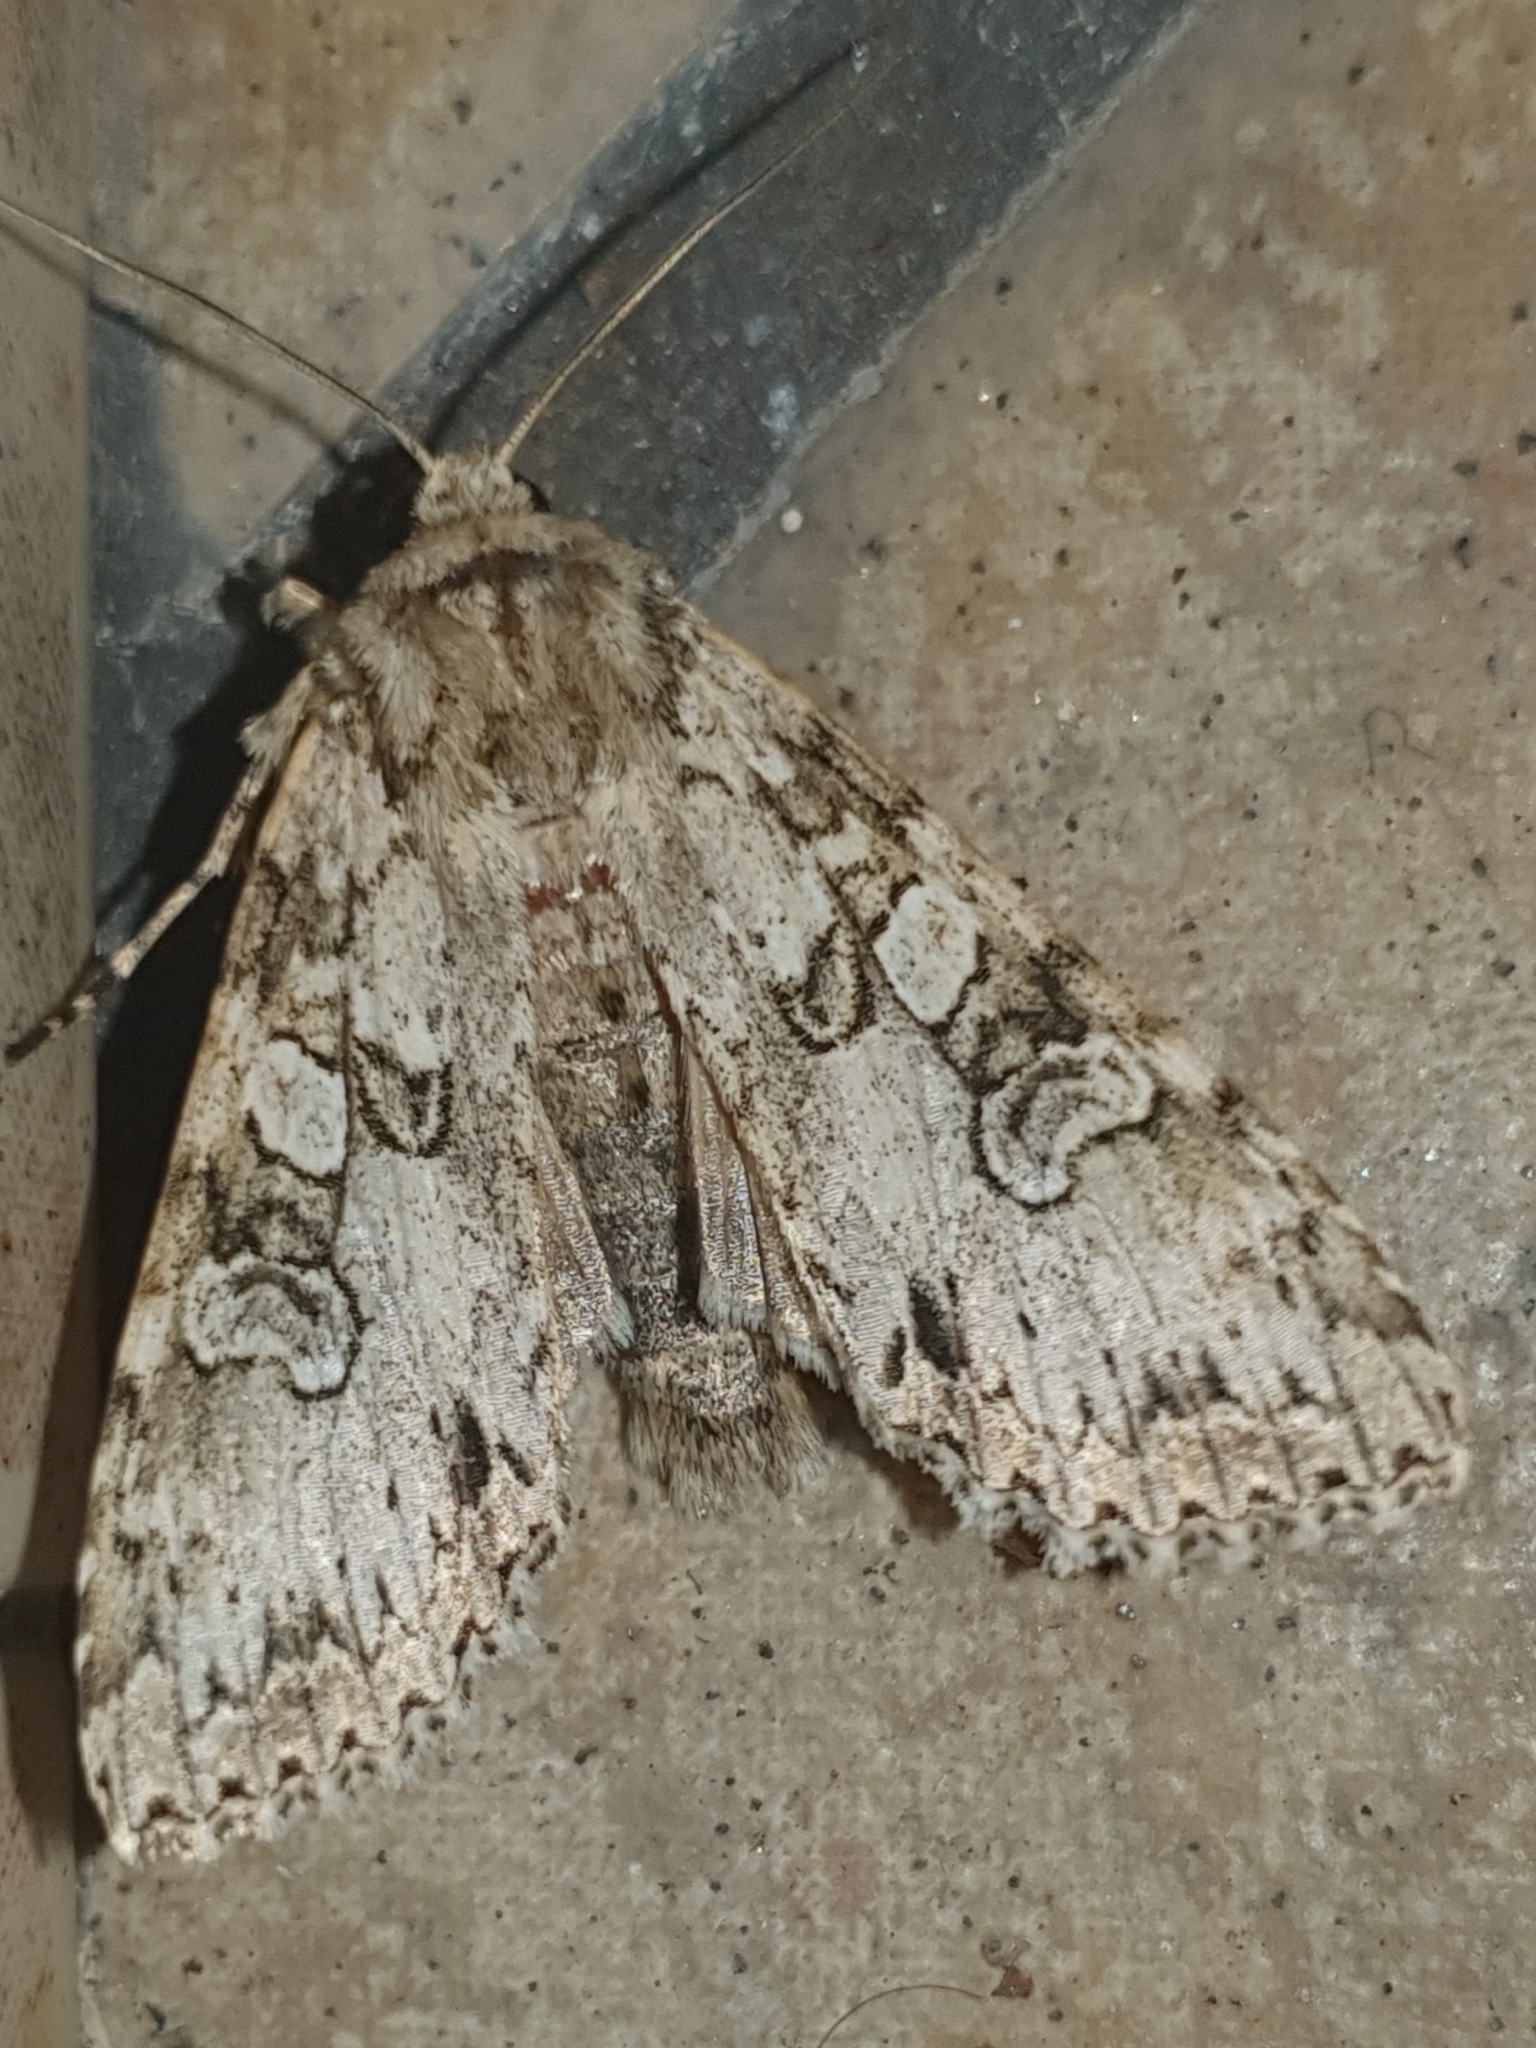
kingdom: Animalia
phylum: Arthropoda
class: Insecta
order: Lepidoptera
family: Noctuidae
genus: Polia
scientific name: Polia nebulosa
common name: Grey arches
